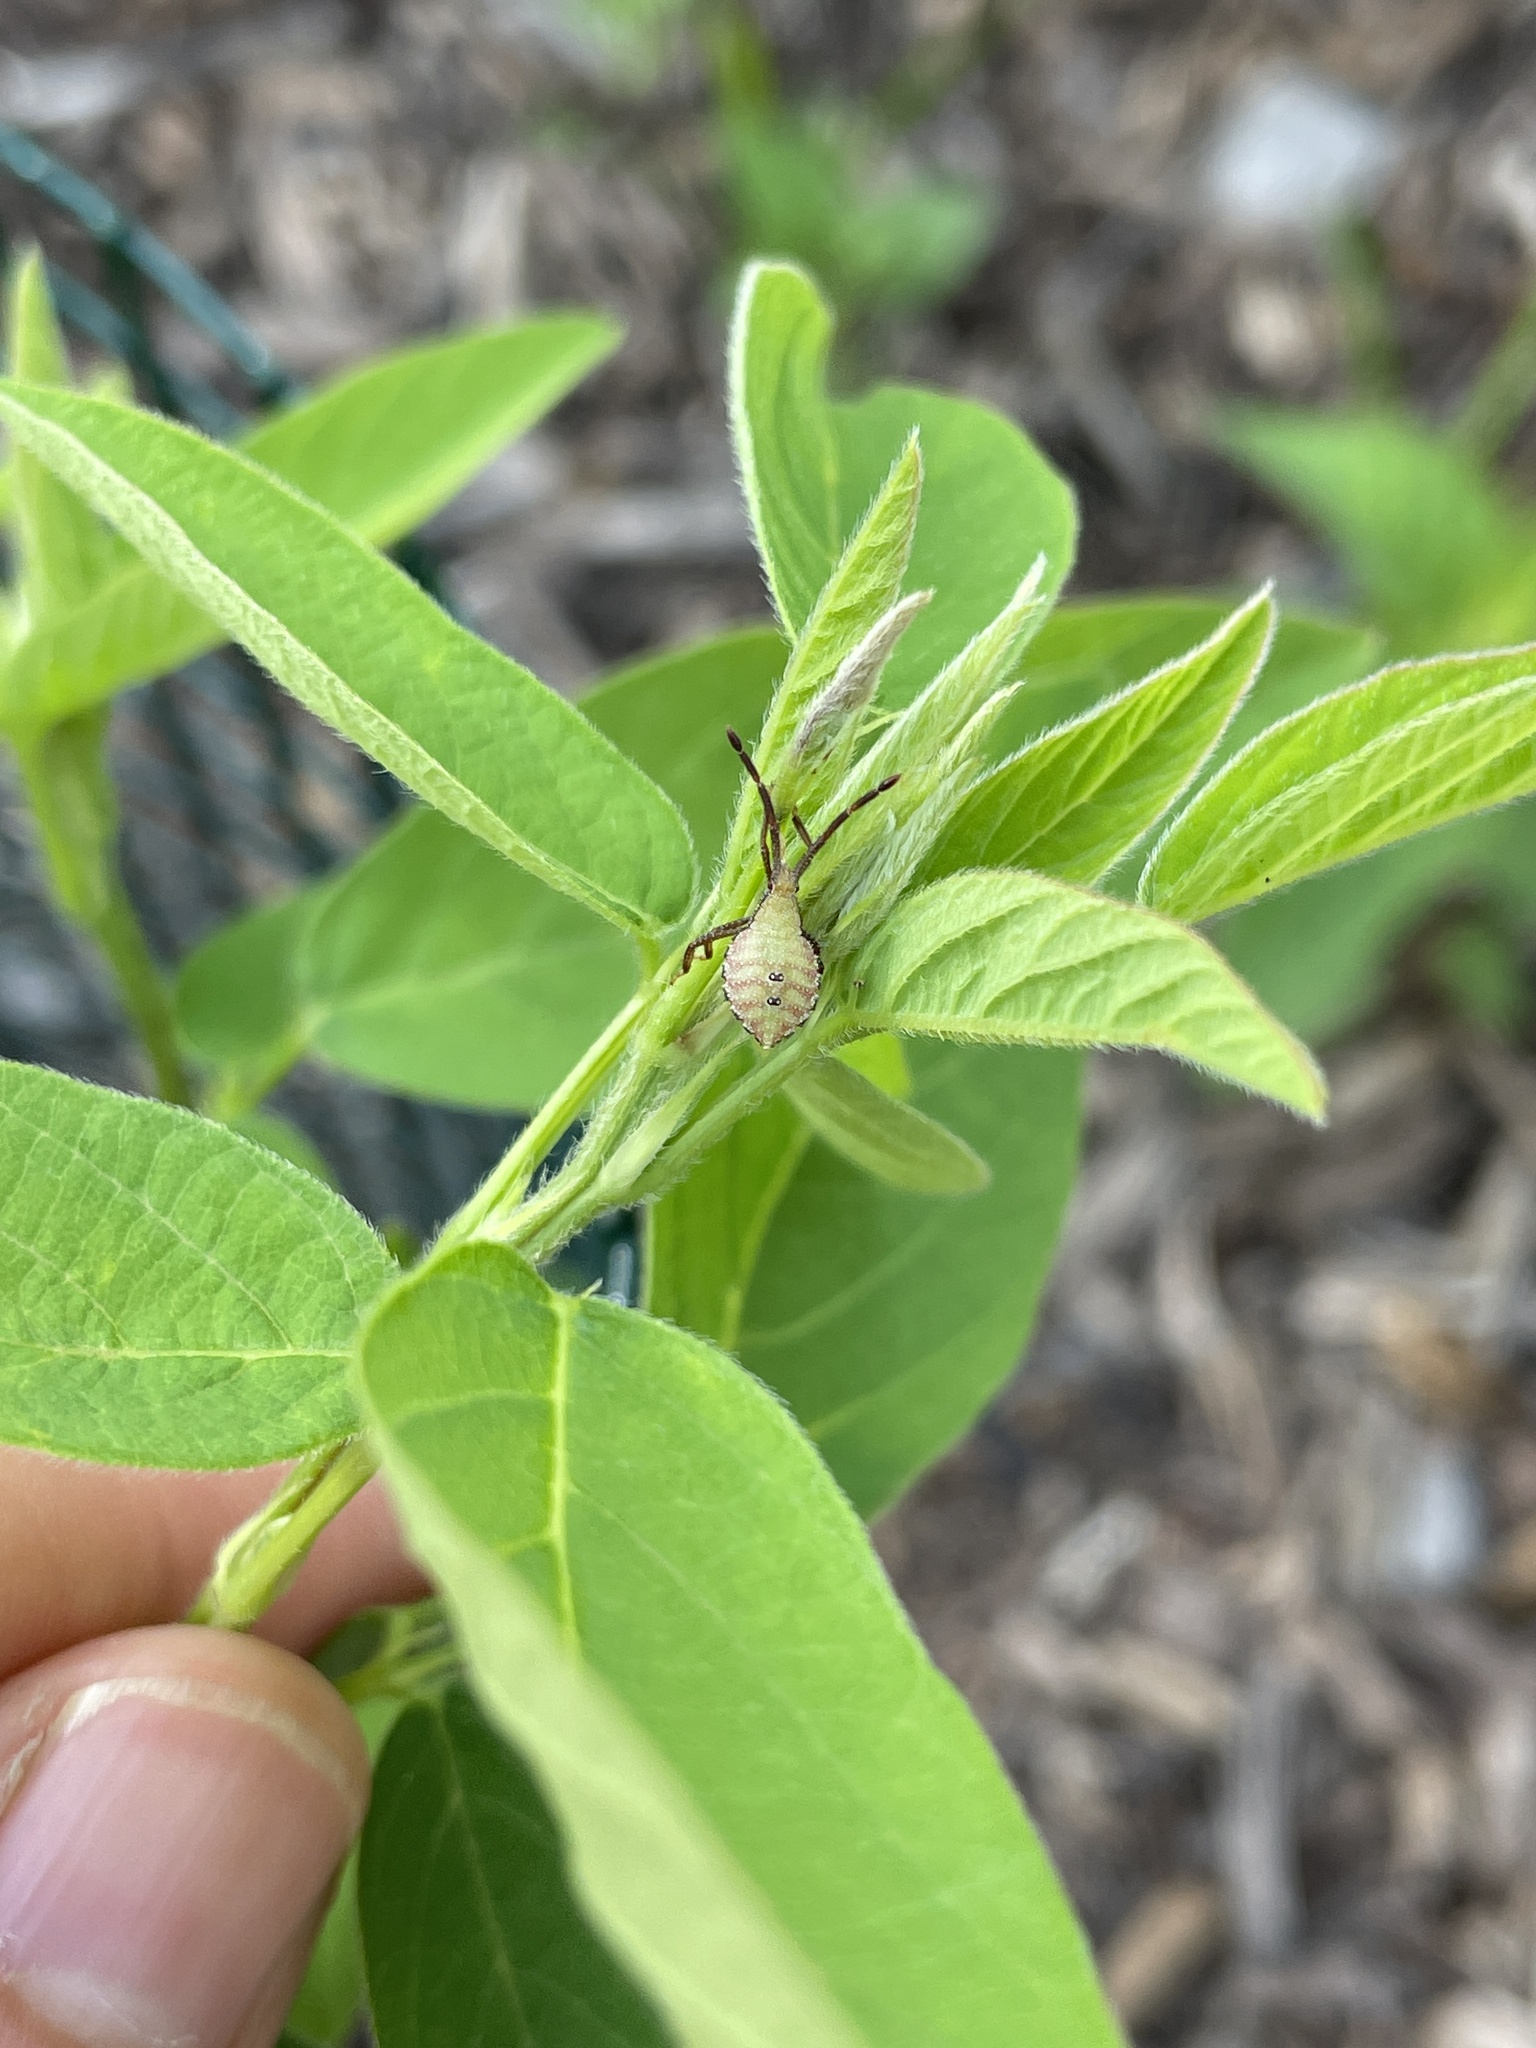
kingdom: Animalia
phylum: Arthropoda
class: Insecta
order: Hemiptera
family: Coreidae
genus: Piezogaster
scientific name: Piezogaster calcarator
